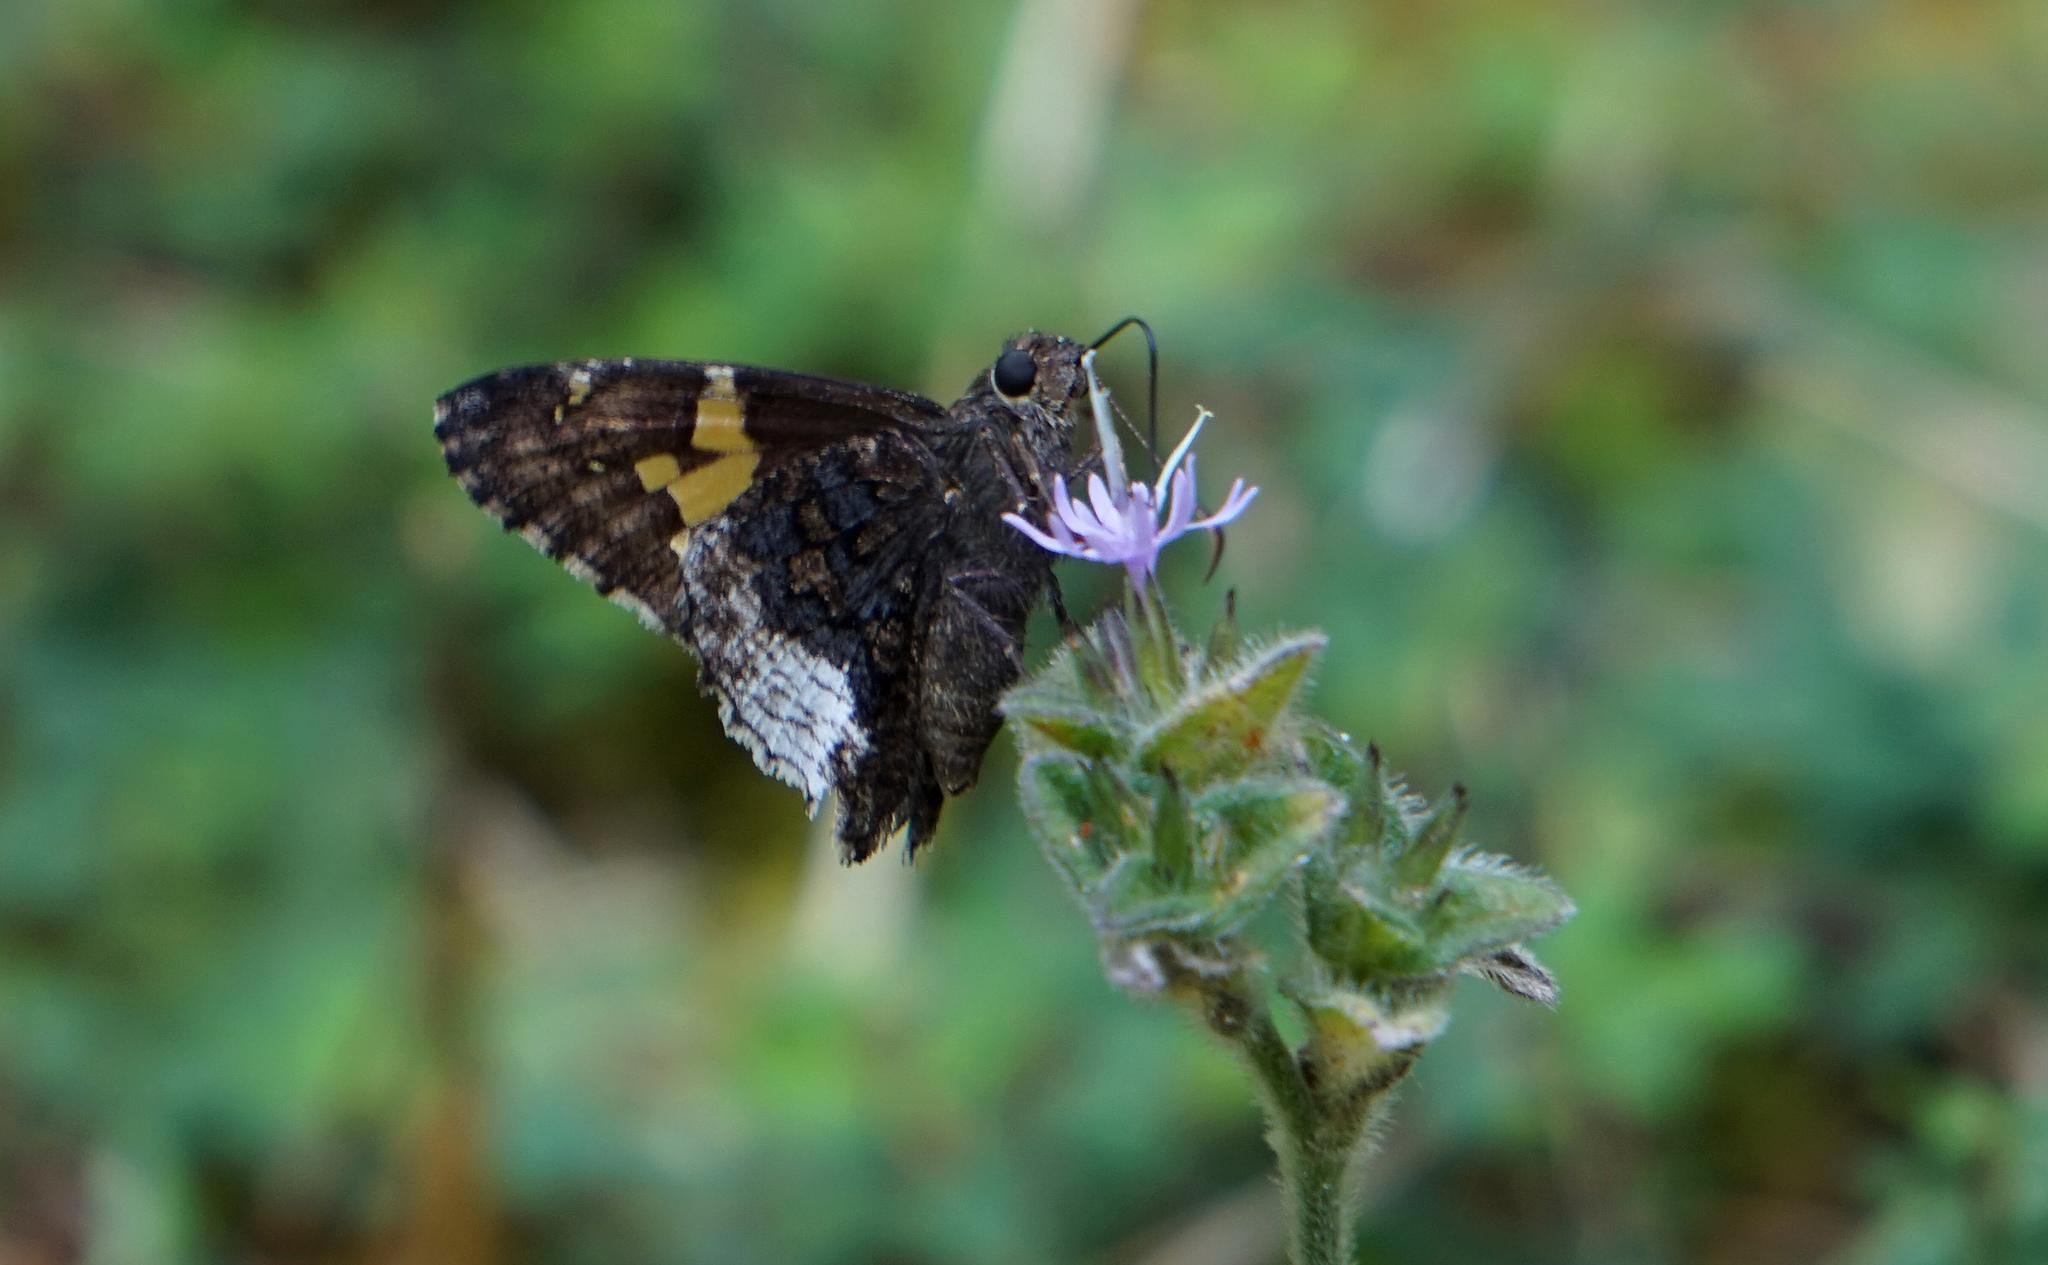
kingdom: Animalia
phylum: Arthropoda
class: Insecta
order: Lepidoptera
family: Hesperiidae
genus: Thorybes
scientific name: Thorybes lyciades
